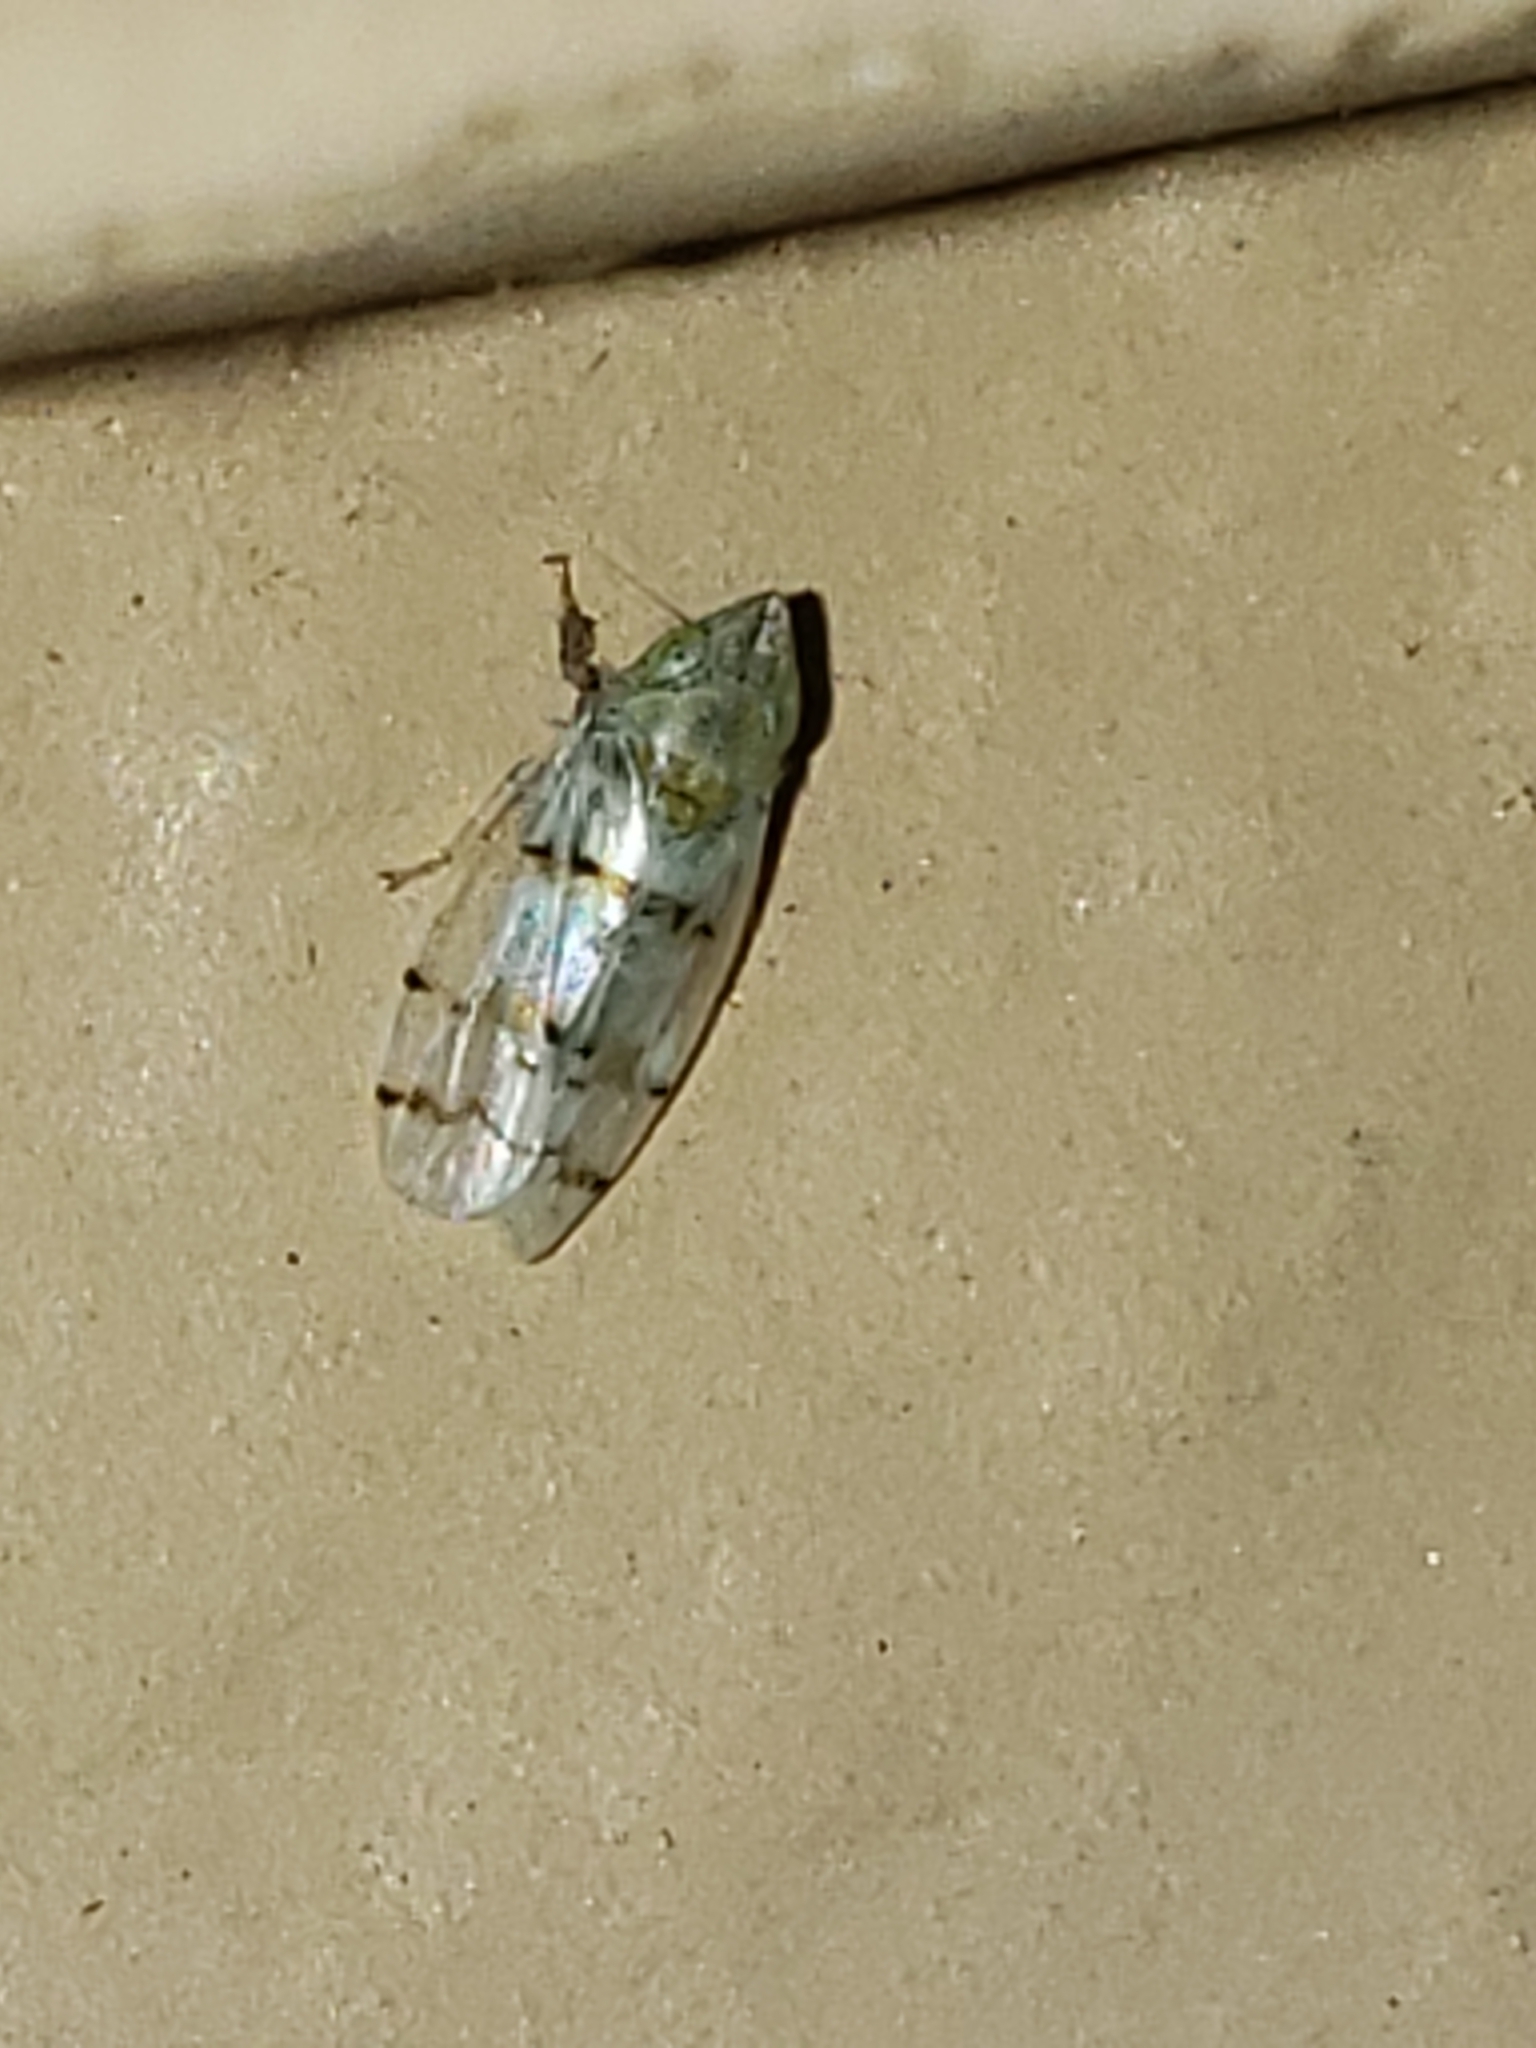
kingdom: Animalia
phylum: Arthropoda
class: Insecta
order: Hemiptera
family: Cicadellidae
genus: Japananus
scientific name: Japananus hyalinus
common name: The japanese maple leafhopper
